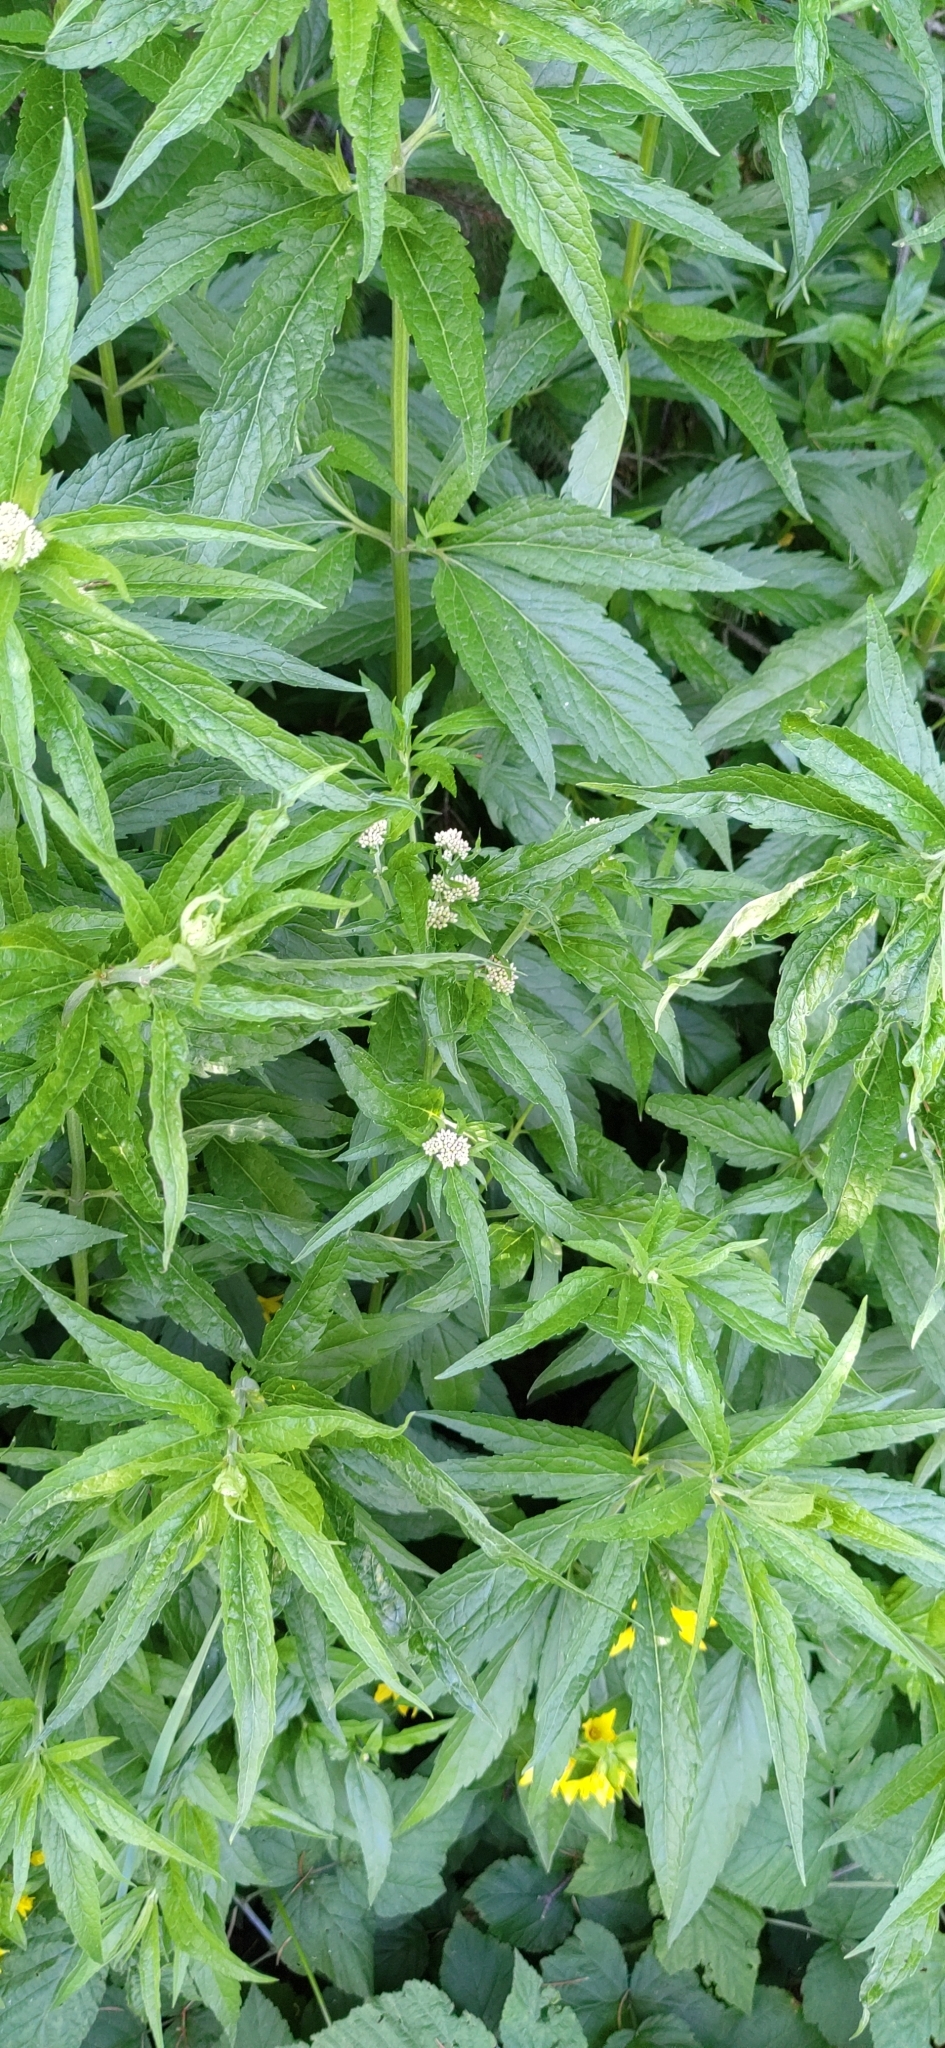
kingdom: Plantae
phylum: Tracheophyta
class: Magnoliopsida
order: Asterales
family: Asteraceae
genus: Eupatorium
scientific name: Eupatorium cannabinum
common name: Hemp-agrimony
